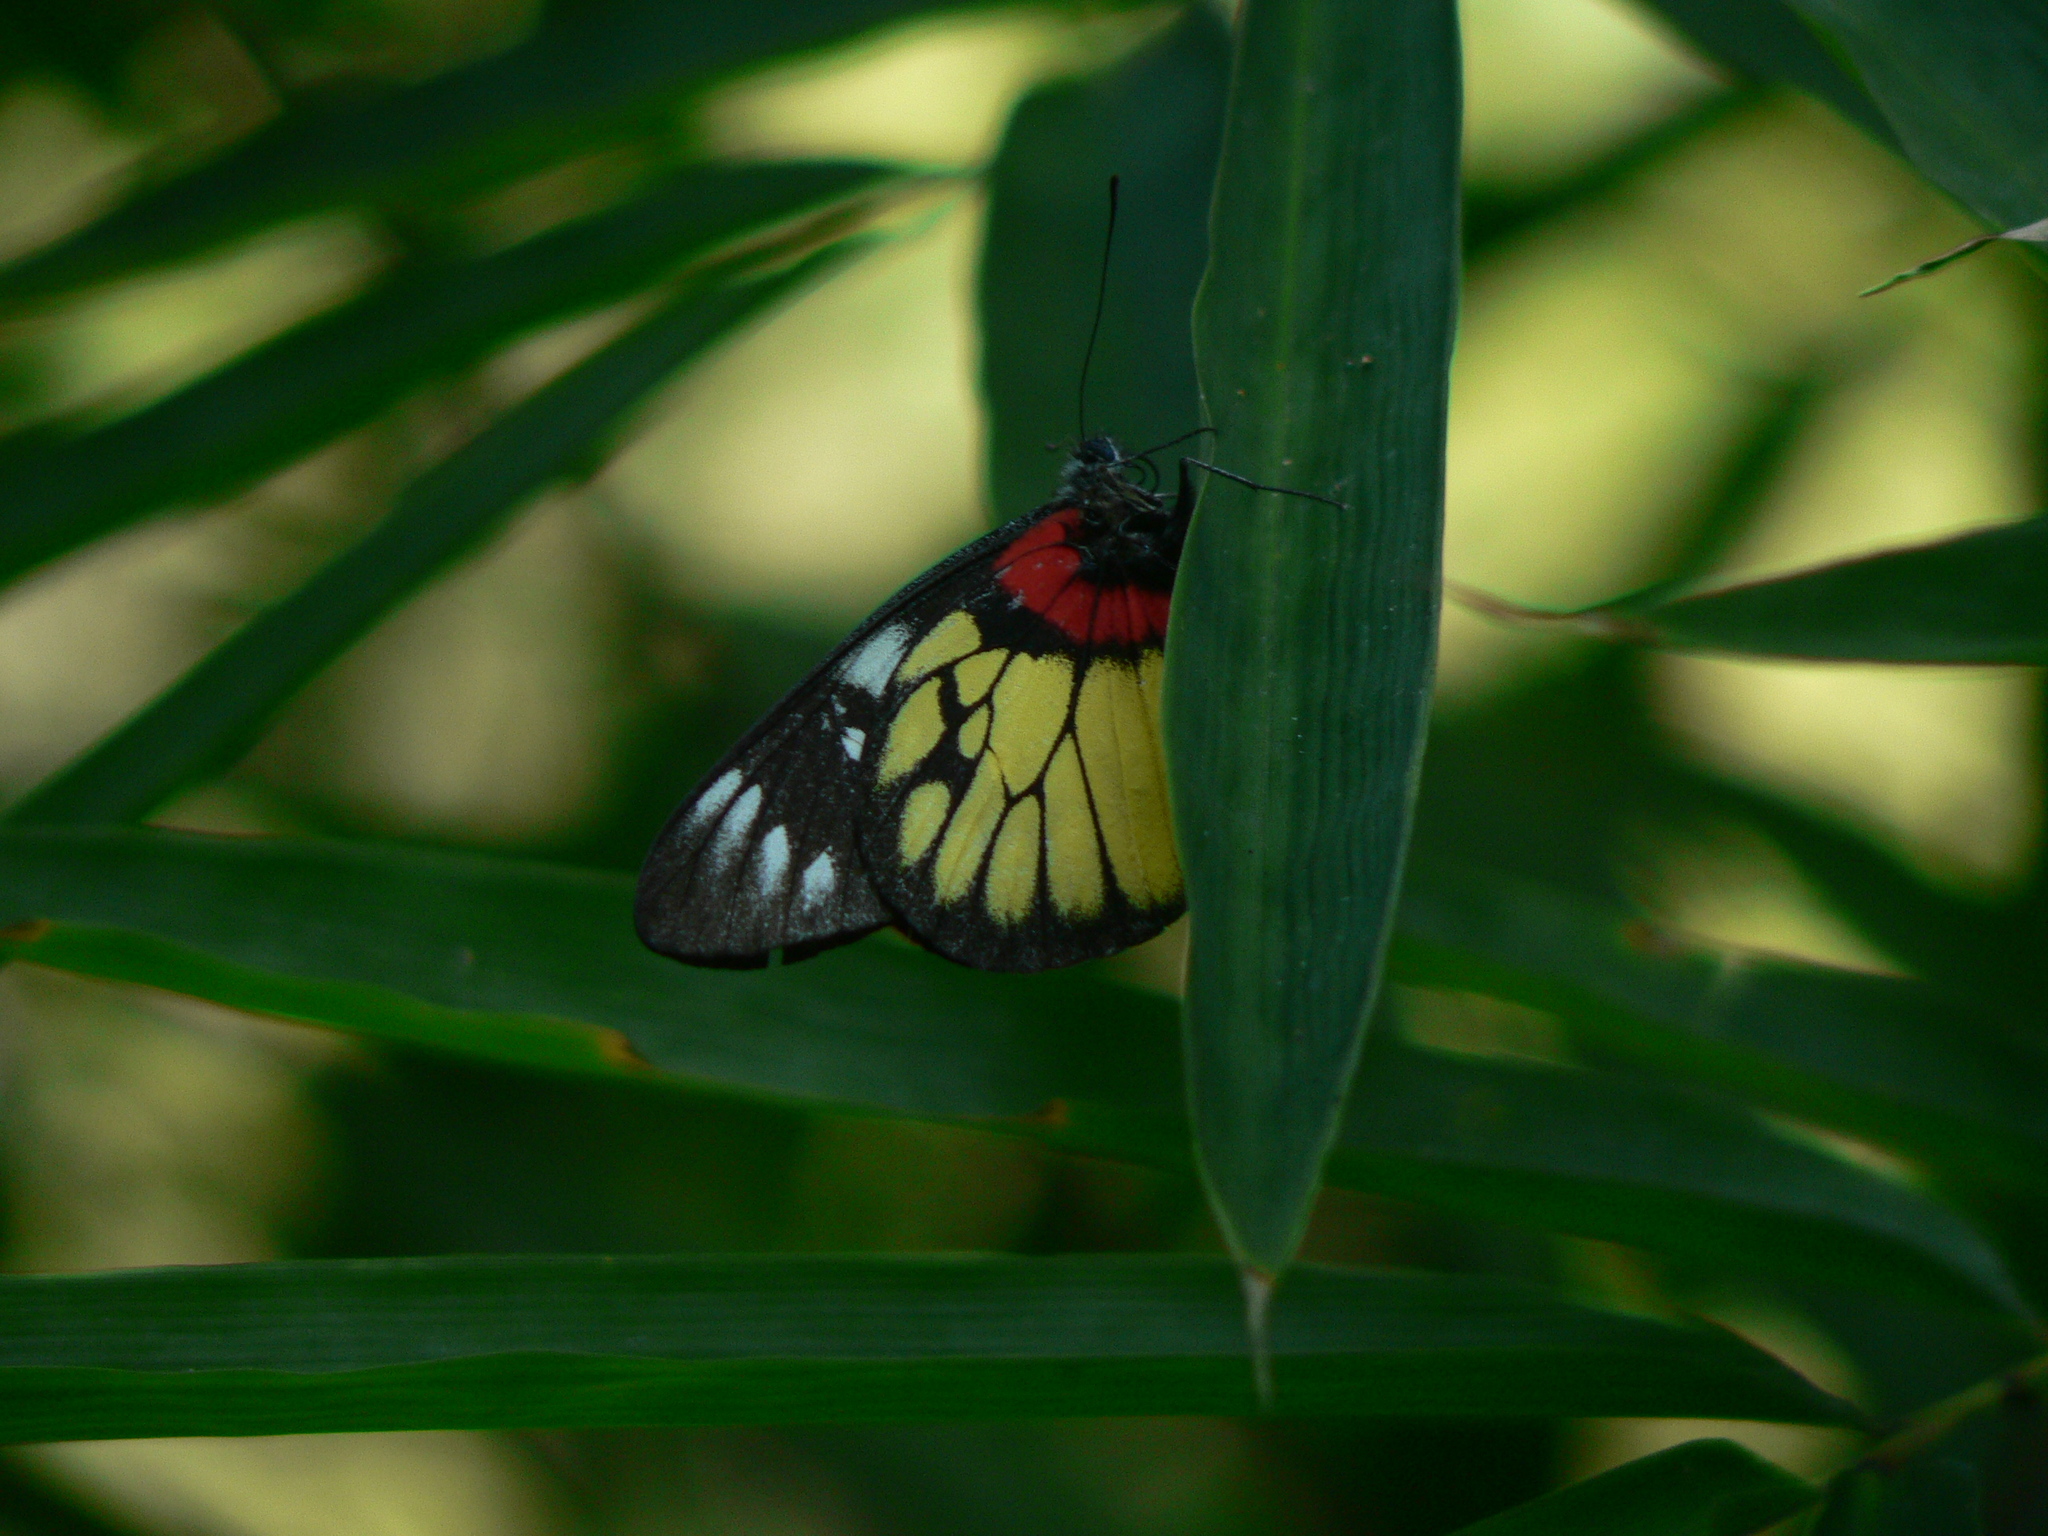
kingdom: Animalia
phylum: Arthropoda
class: Insecta
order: Lepidoptera
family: Pieridae
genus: Delias
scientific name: Delias pasithoe
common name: Red-base jezebel
